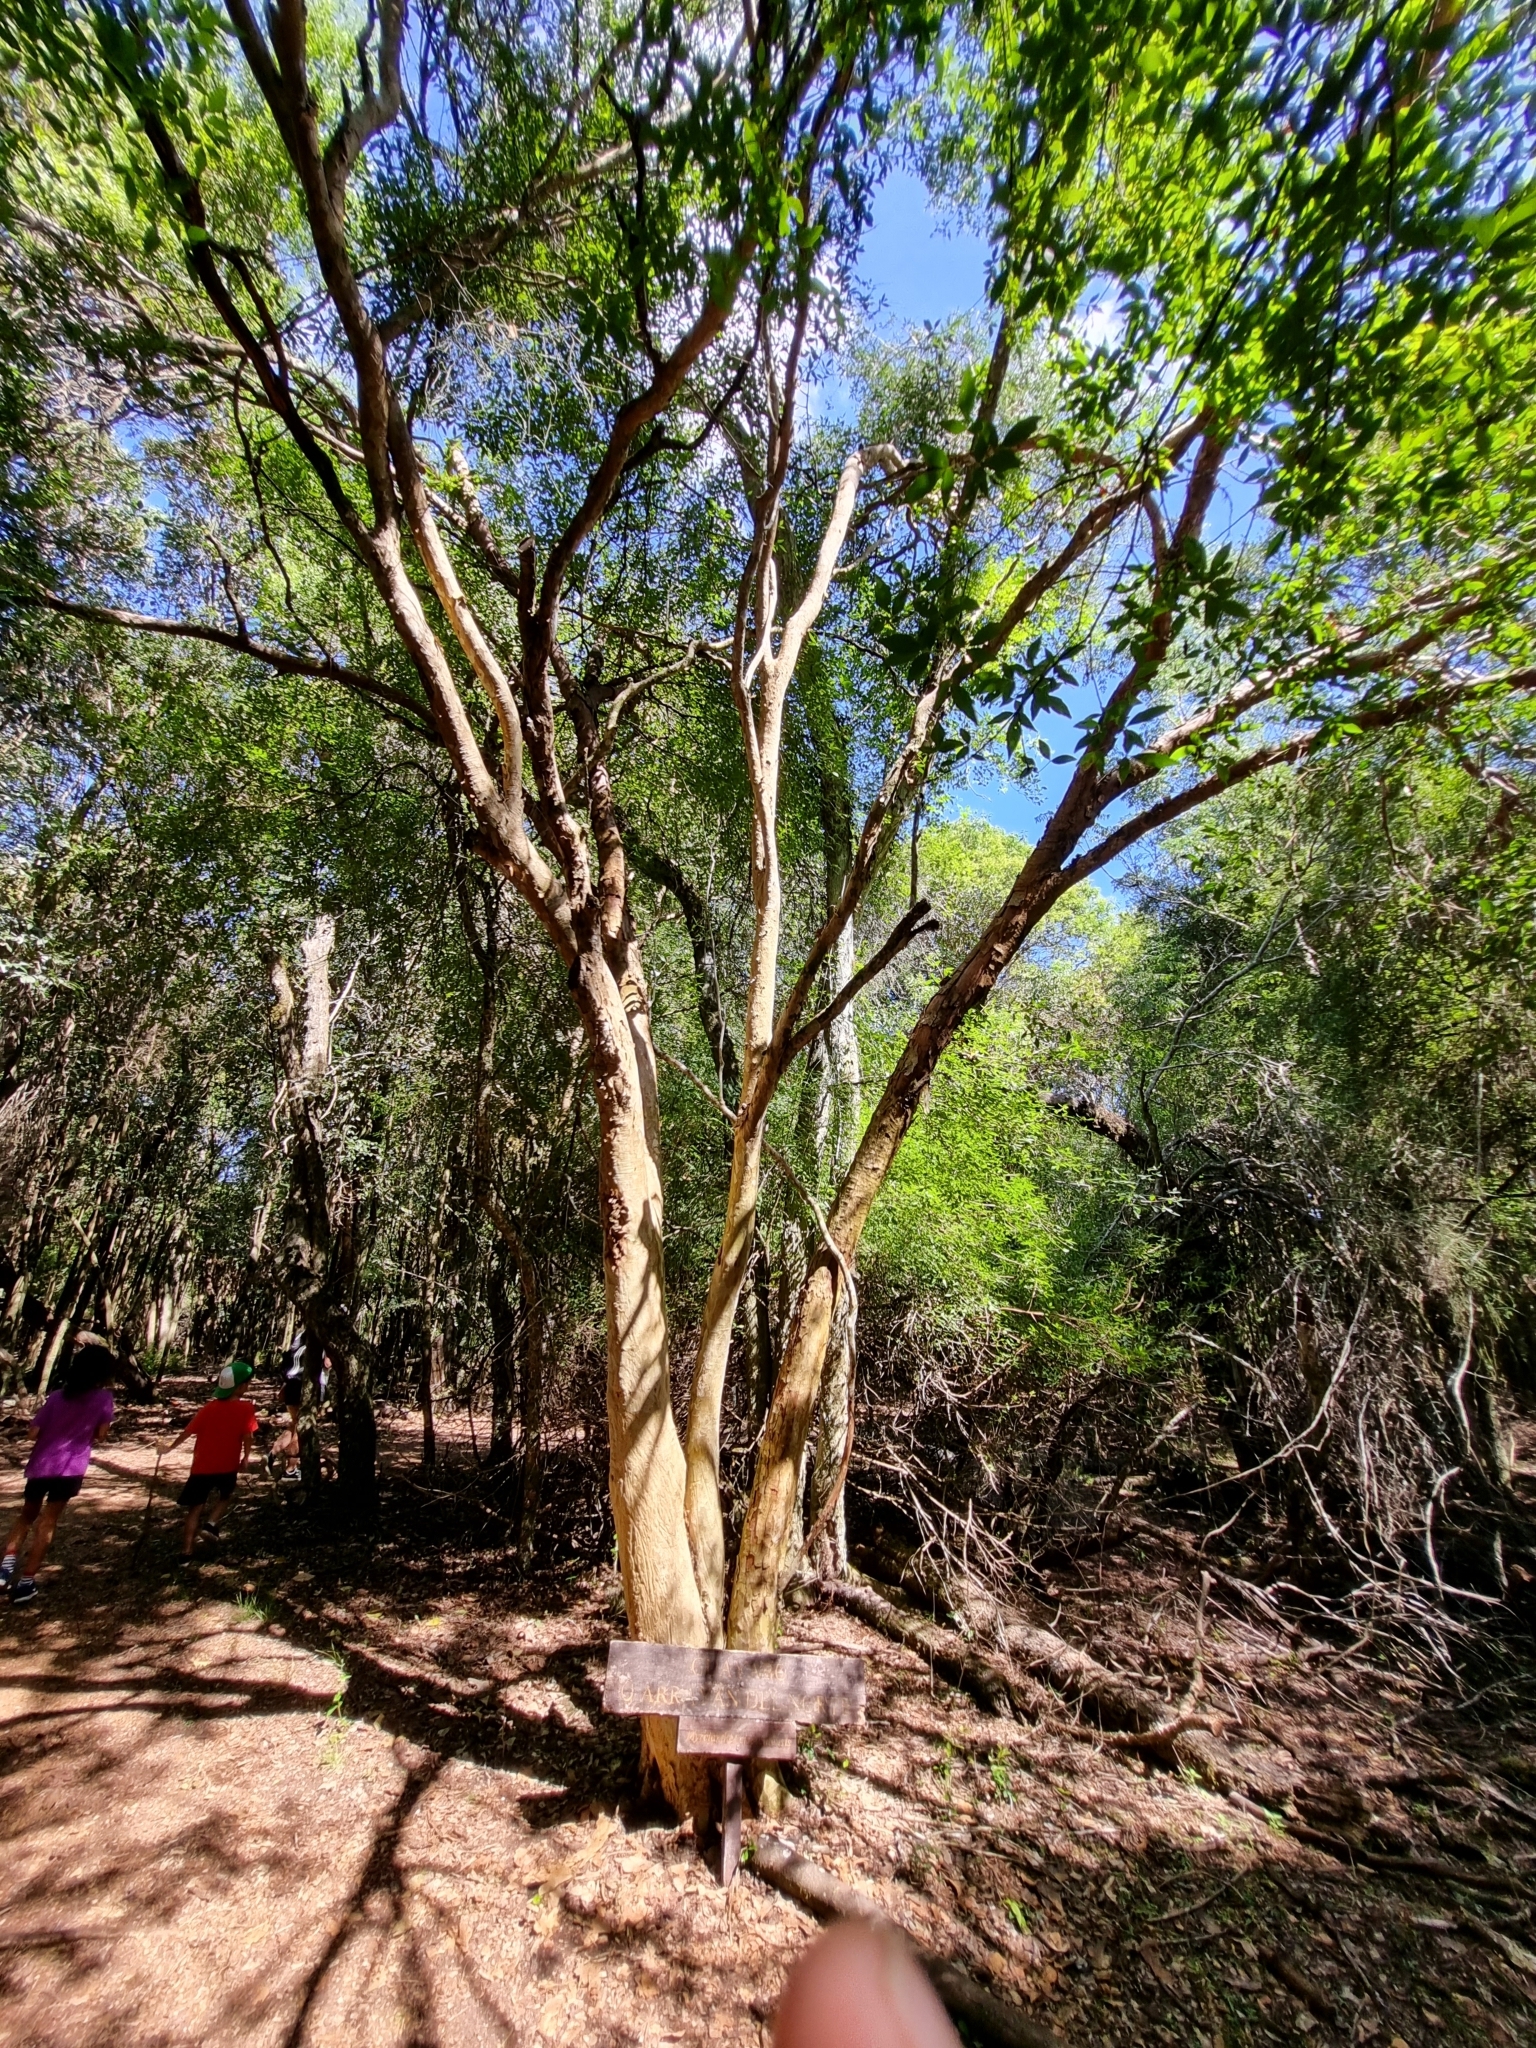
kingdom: Plantae
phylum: Tracheophyta
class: Magnoliopsida
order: Myrtales
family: Myrtaceae
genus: Myrcianthes
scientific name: Myrcianthes cisplatensis
